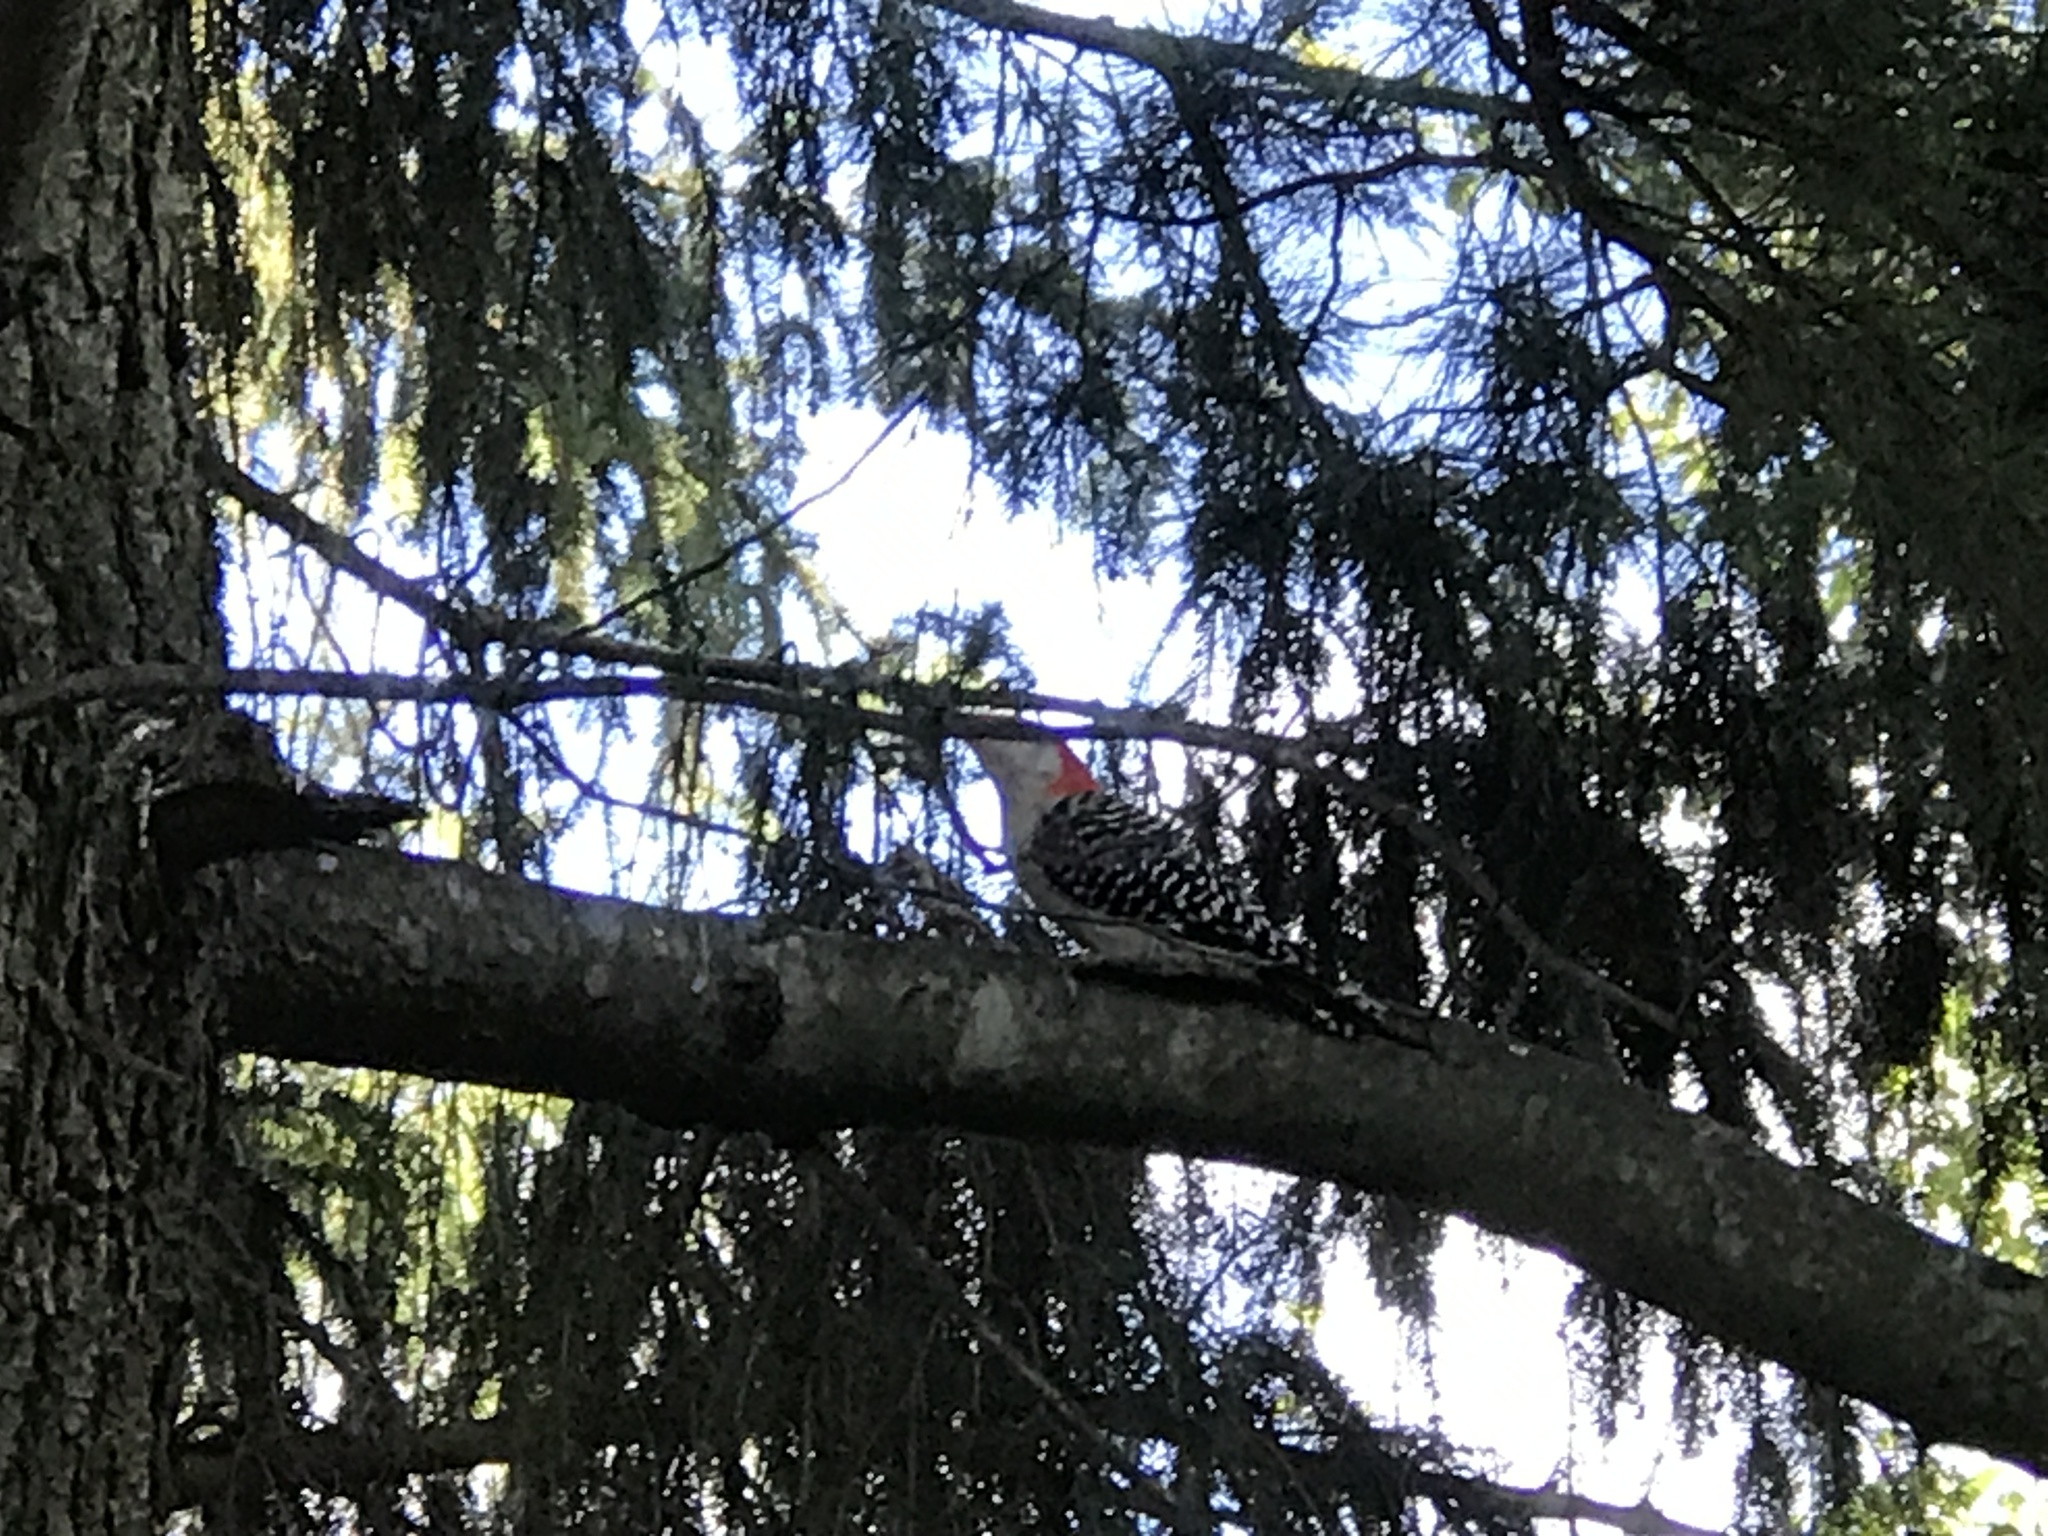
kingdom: Animalia
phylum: Chordata
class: Aves
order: Piciformes
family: Picidae
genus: Melanerpes
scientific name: Melanerpes carolinus
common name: Red-bellied woodpecker
